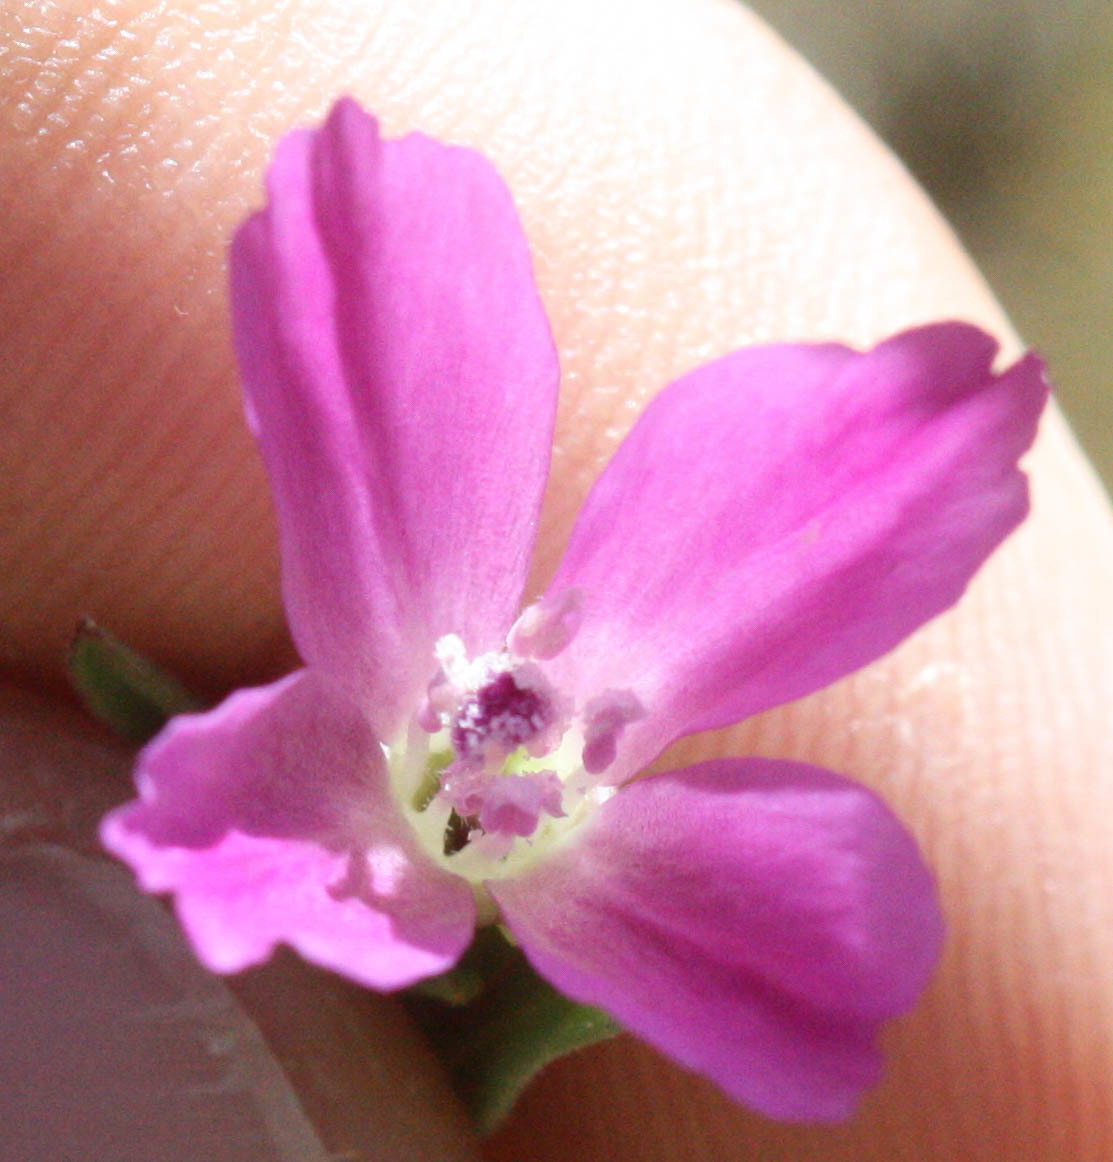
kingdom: Plantae
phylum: Tracheophyta
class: Magnoliopsida
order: Myrtales
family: Onagraceae
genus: Clarkia
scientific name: Clarkia purpurea
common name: Purple clarkia
